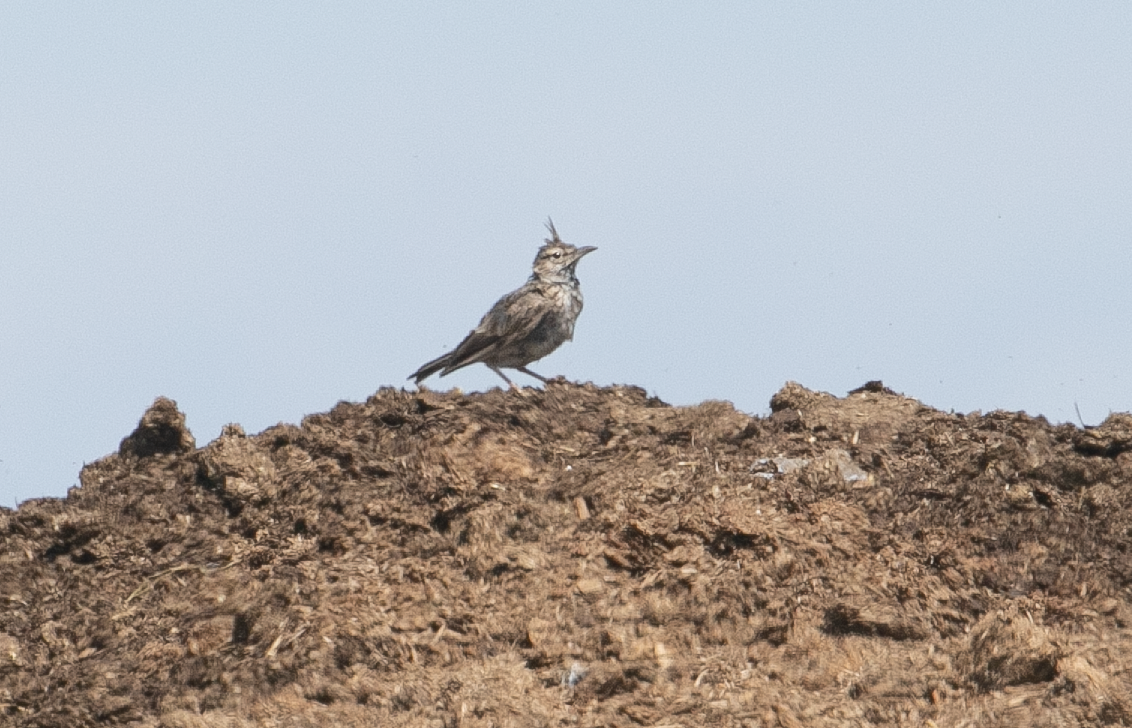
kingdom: Animalia
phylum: Chordata
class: Aves
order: Passeriformes
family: Alaudidae
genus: Galerida
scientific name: Galerida cristata
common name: Crested lark
